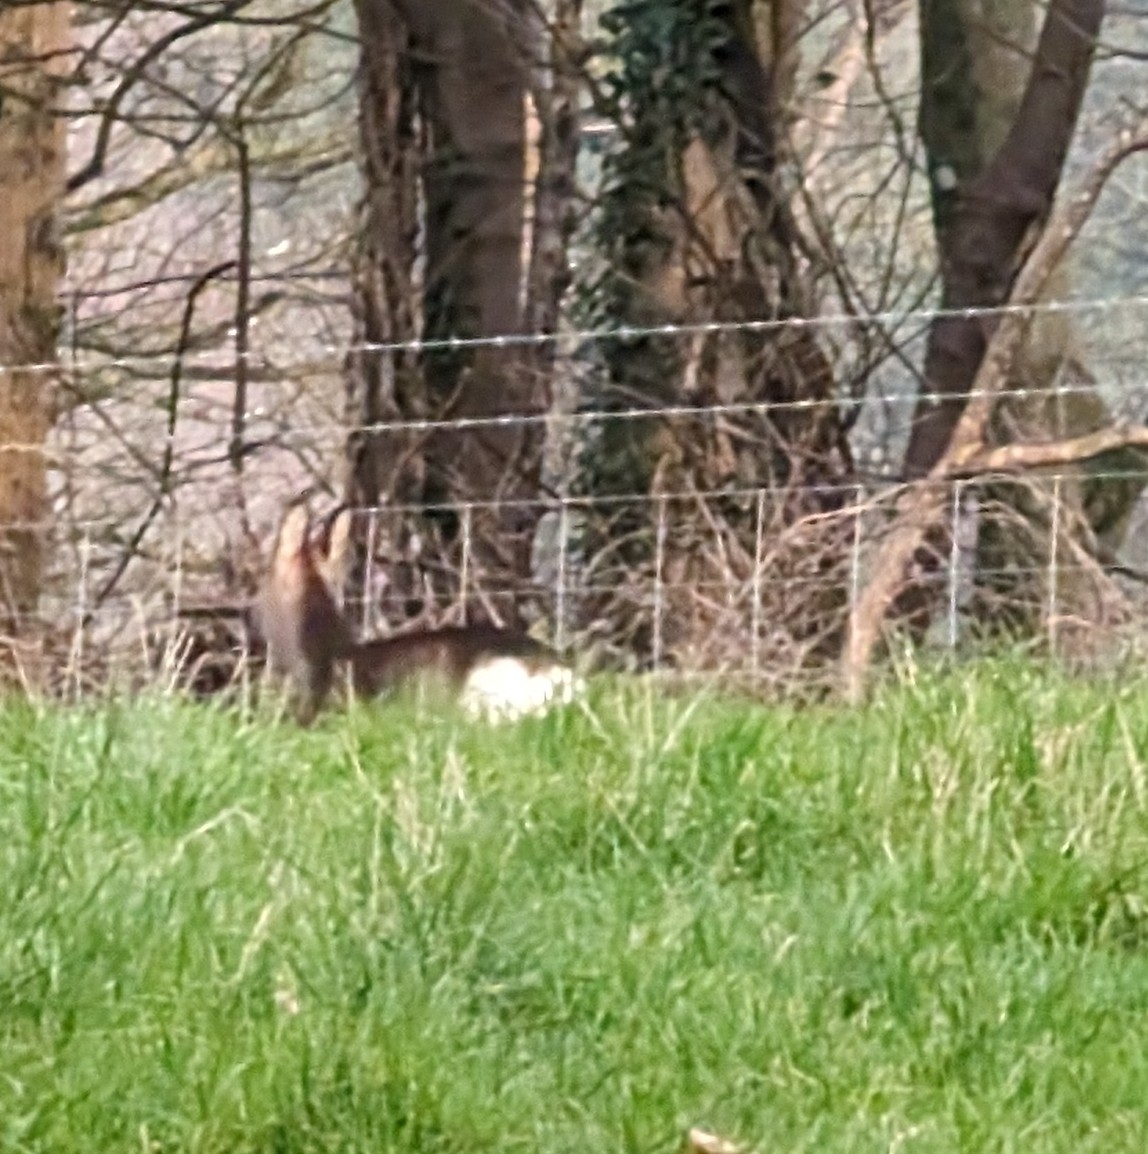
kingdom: Animalia
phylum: Chordata
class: Mammalia
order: Artiodactyla
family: Cervidae
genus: Capreolus
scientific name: Capreolus capreolus
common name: Western roe deer
